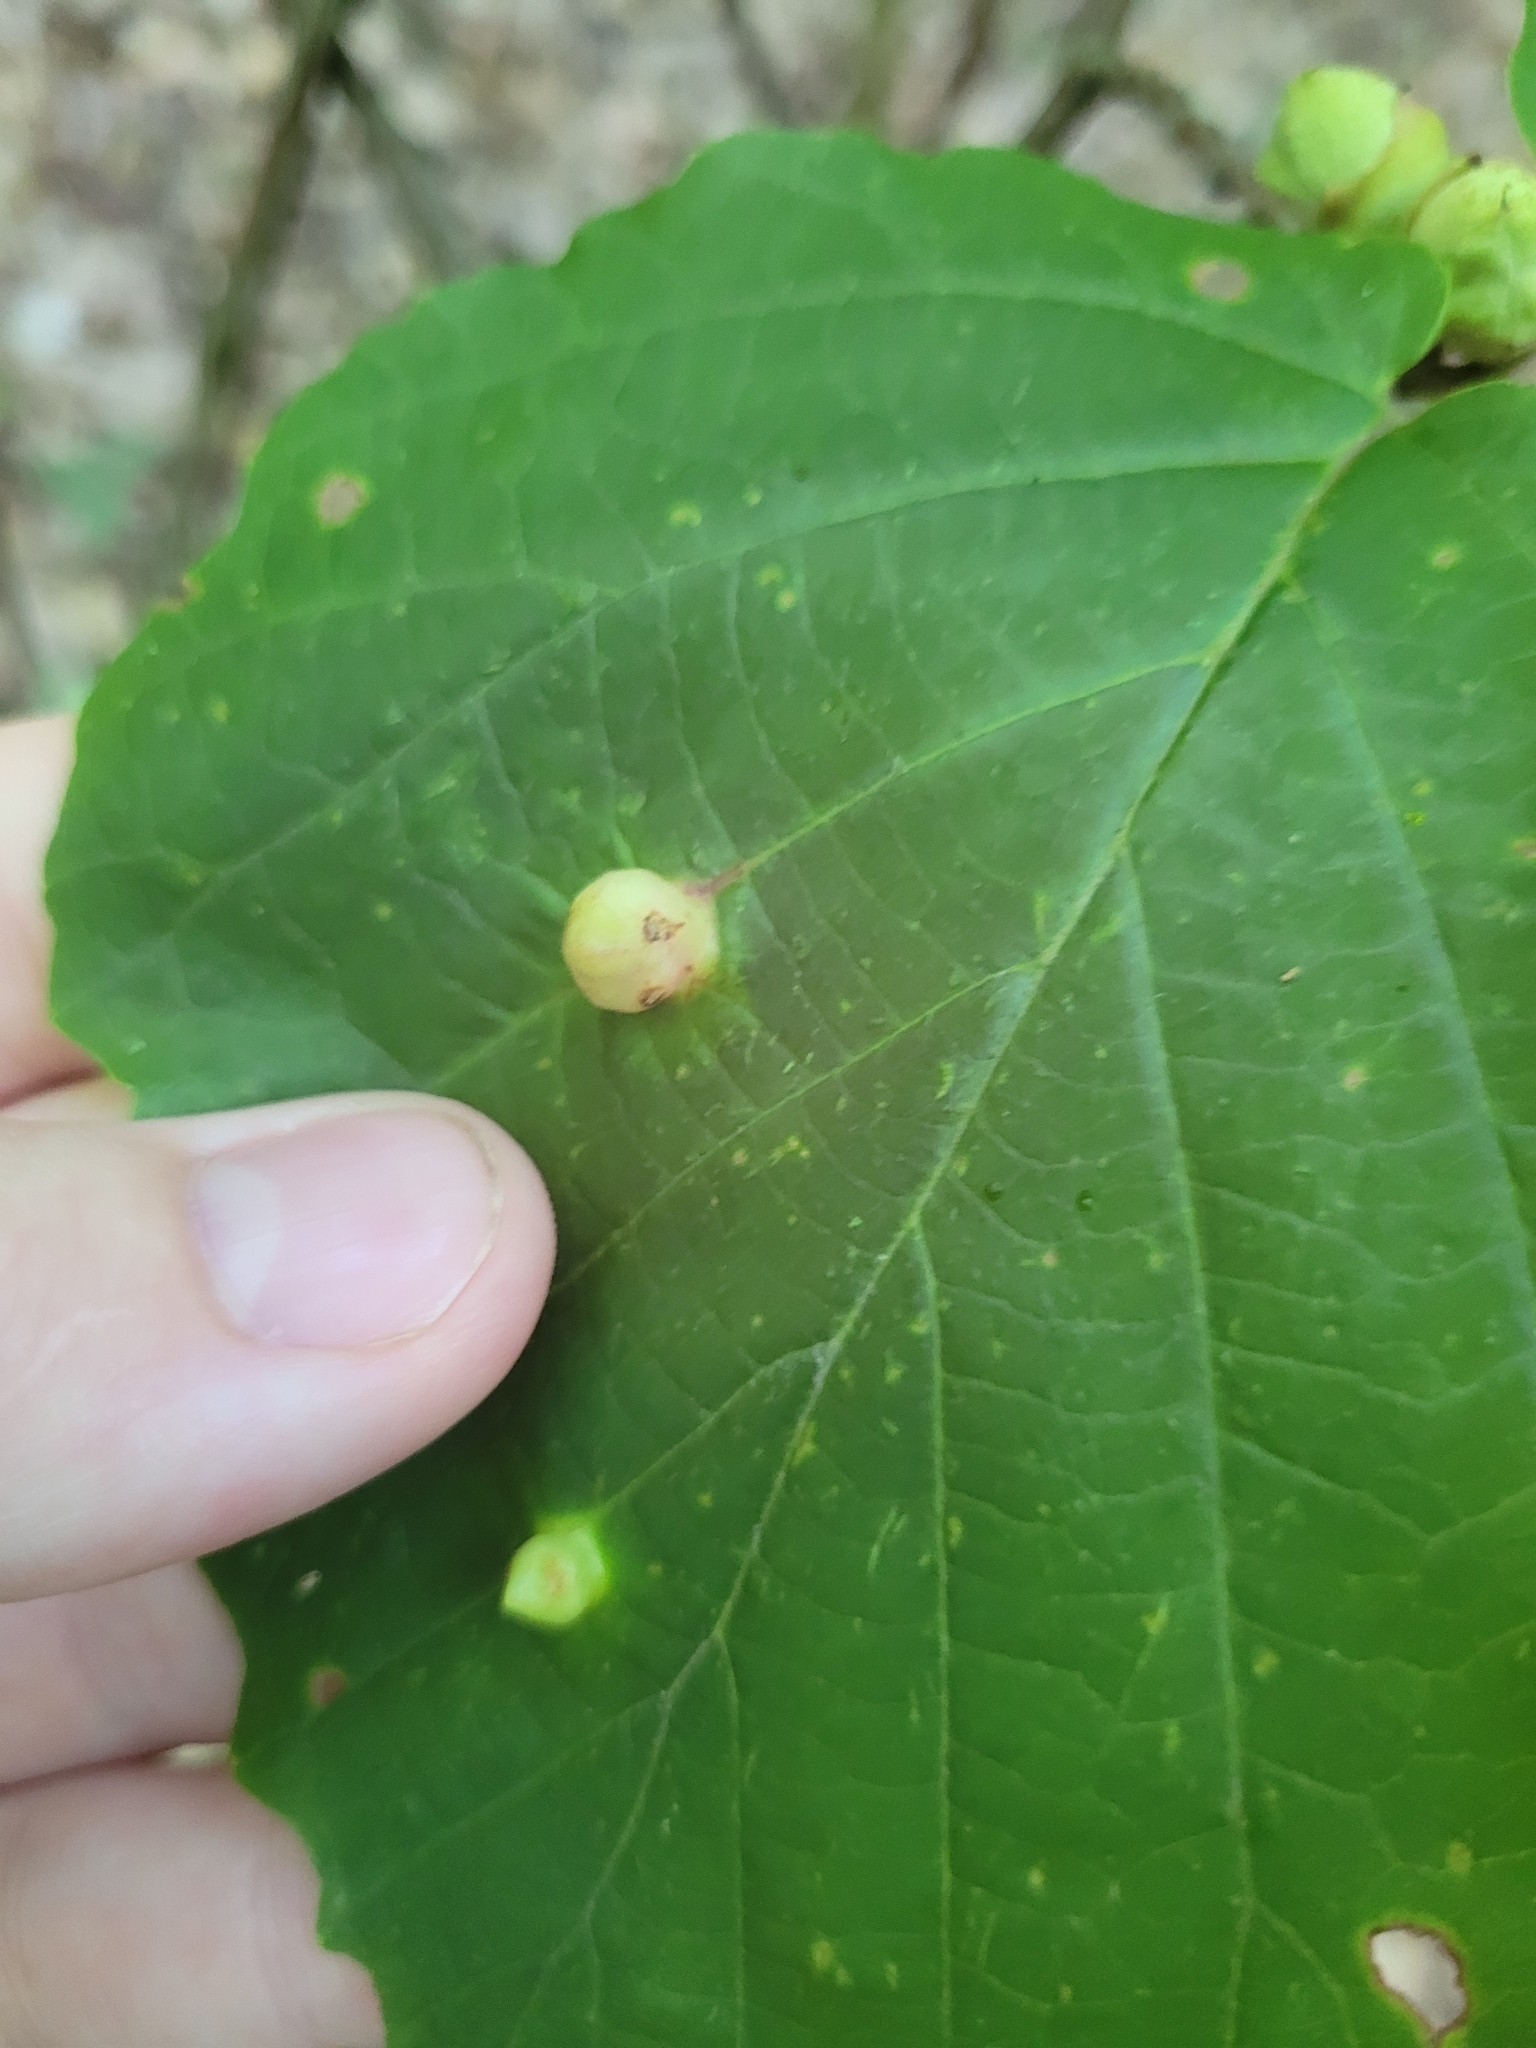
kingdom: Animalia
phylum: Arthropoda
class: Insecta
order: Hemiptera
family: Aphididae
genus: Hormaphis
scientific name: Hormaphis hamamelidis
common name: Witch-hazel cone gall aphid
